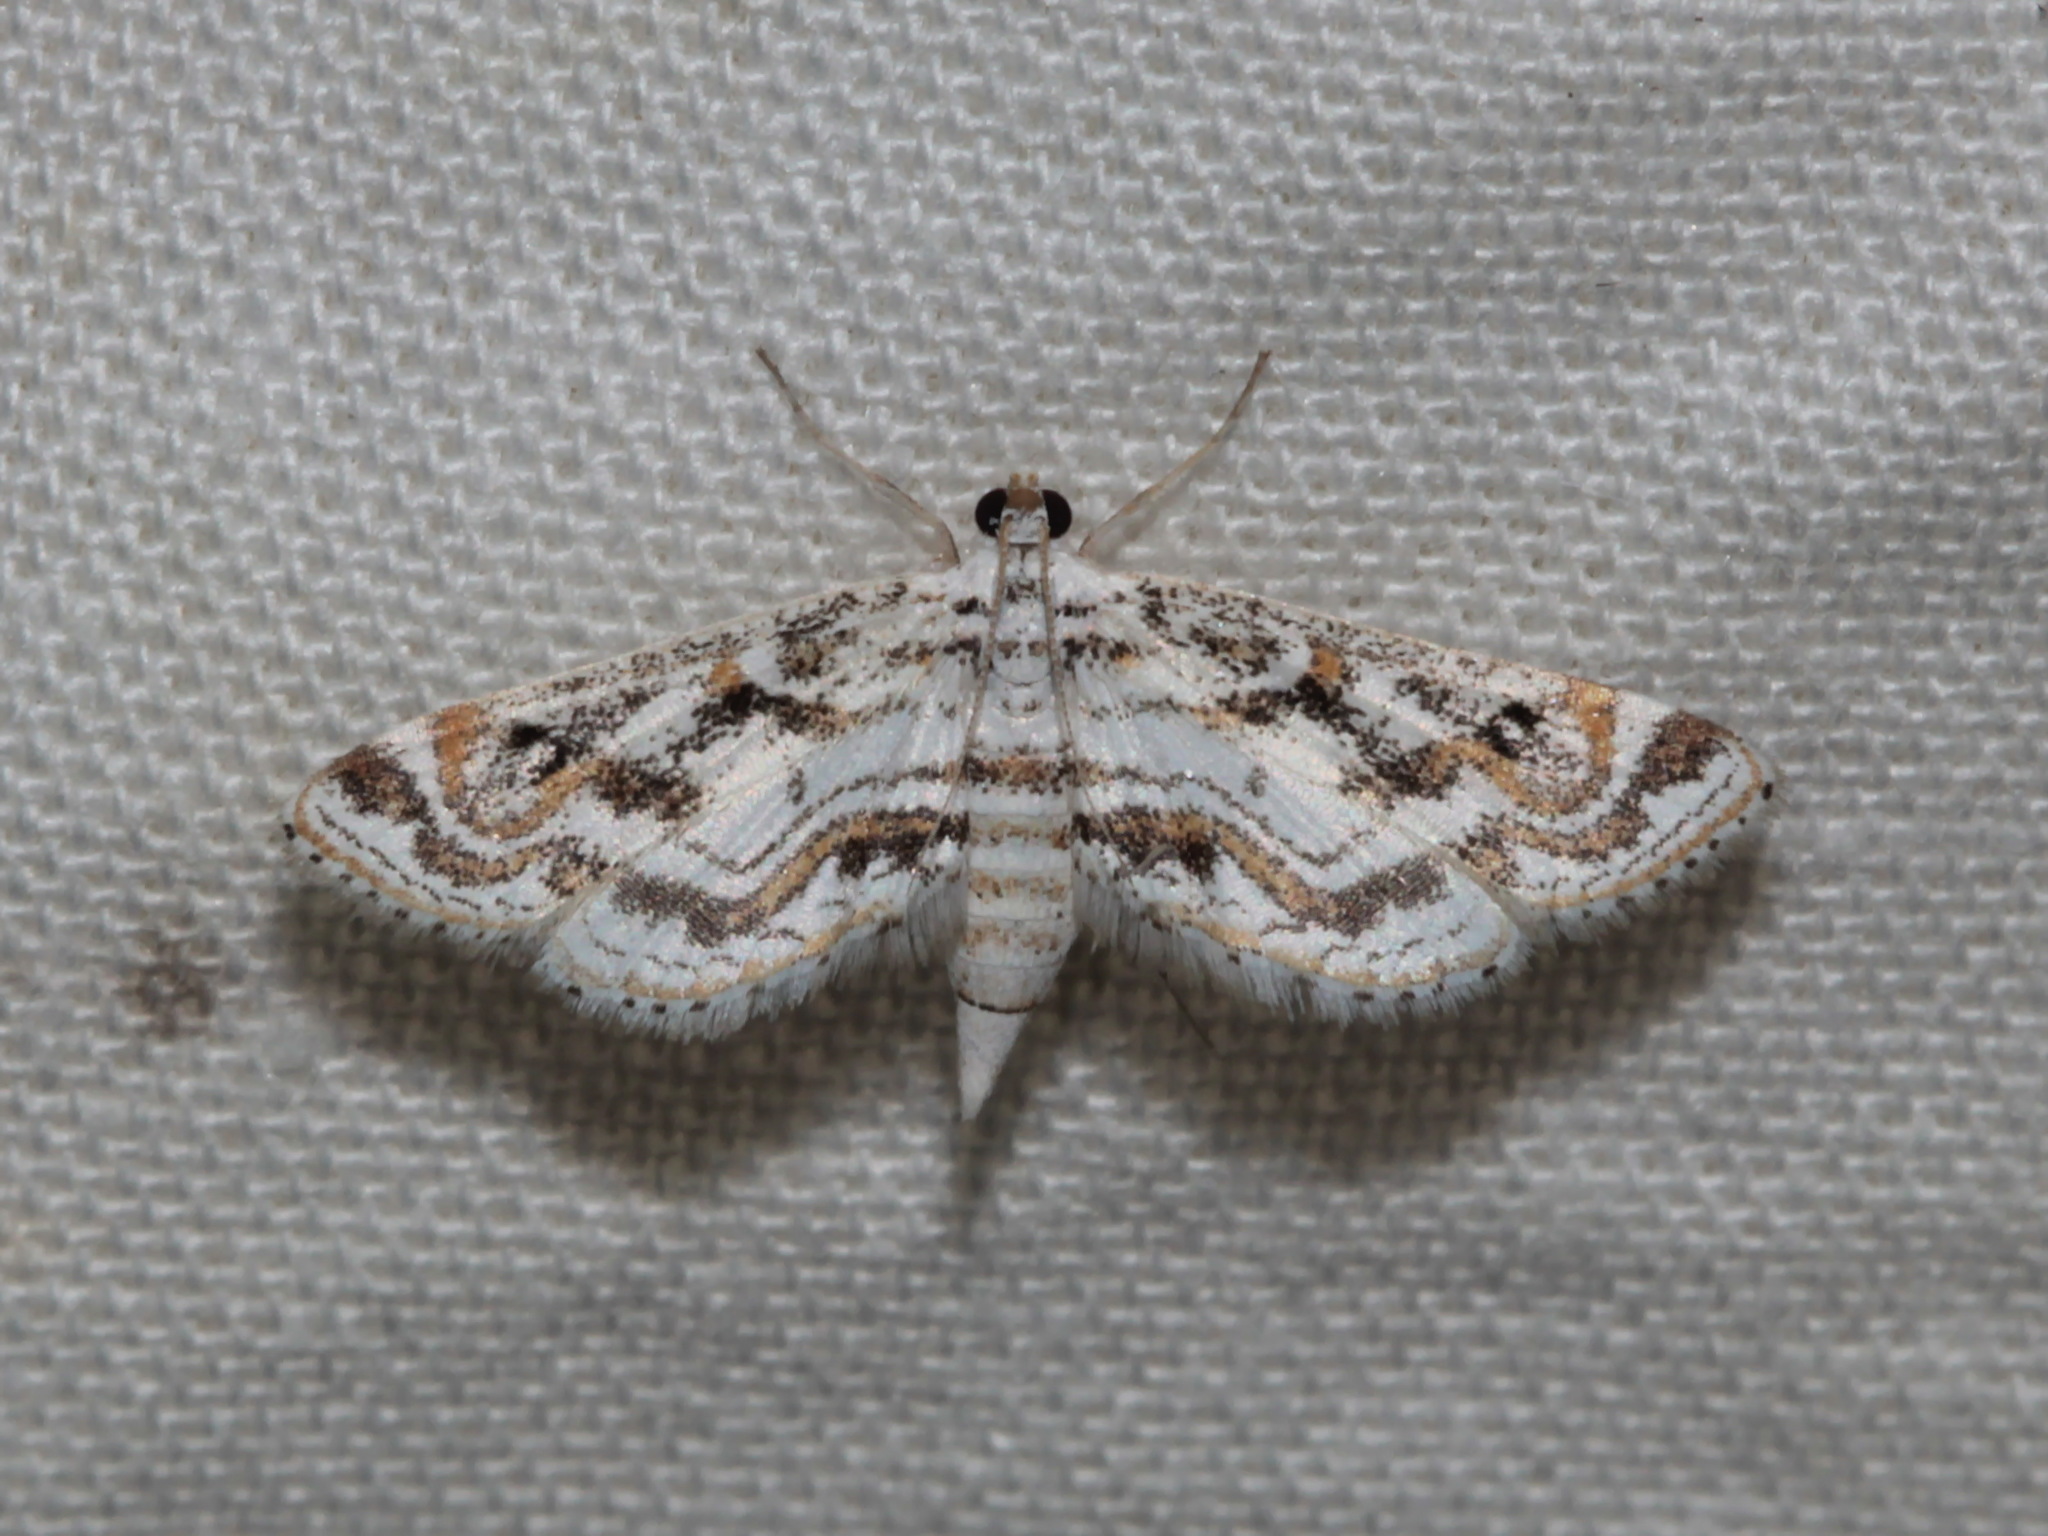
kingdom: Animalia
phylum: Arthropoda
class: Insecta
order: Lepidoptera
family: Crambidae
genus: Parapoynx
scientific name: Parapoynx diminutalis
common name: Hydrilla leafcutter
